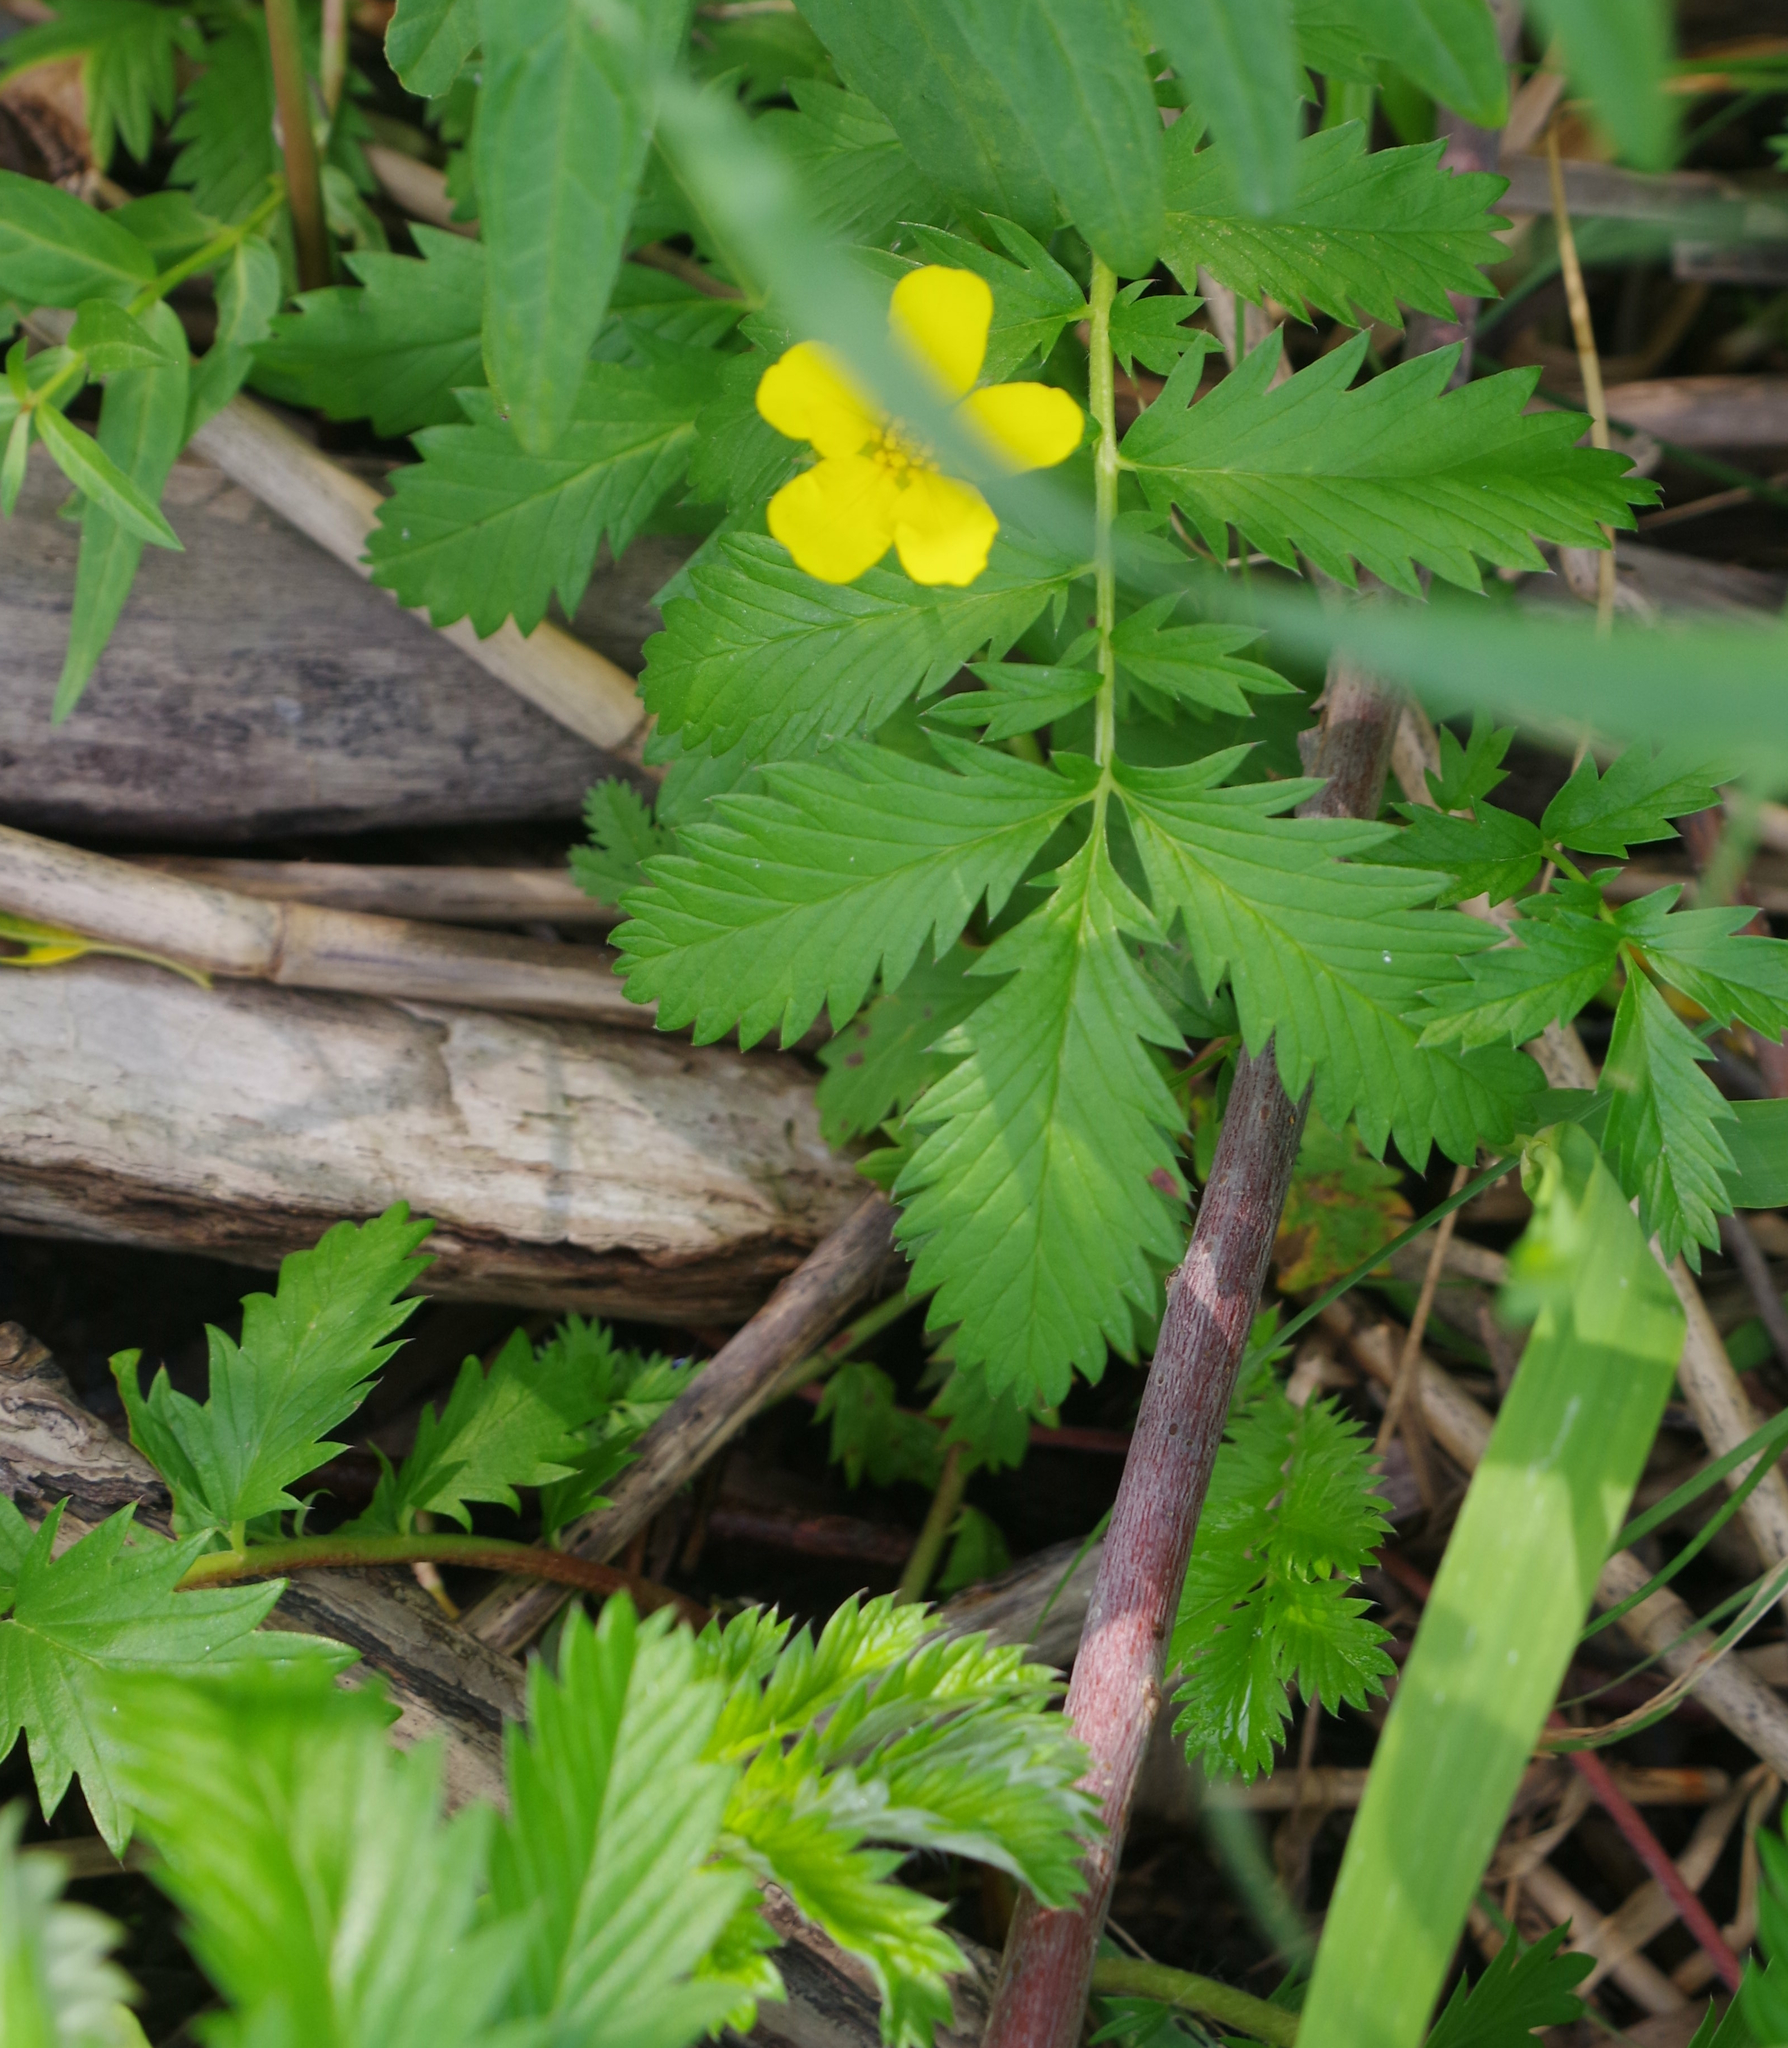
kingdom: Plantae
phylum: Tracheophyta
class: Magnoliopsida
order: Rosales
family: Rosaceae
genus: Argentina
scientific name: Argentina anserina
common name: Common silverweed
